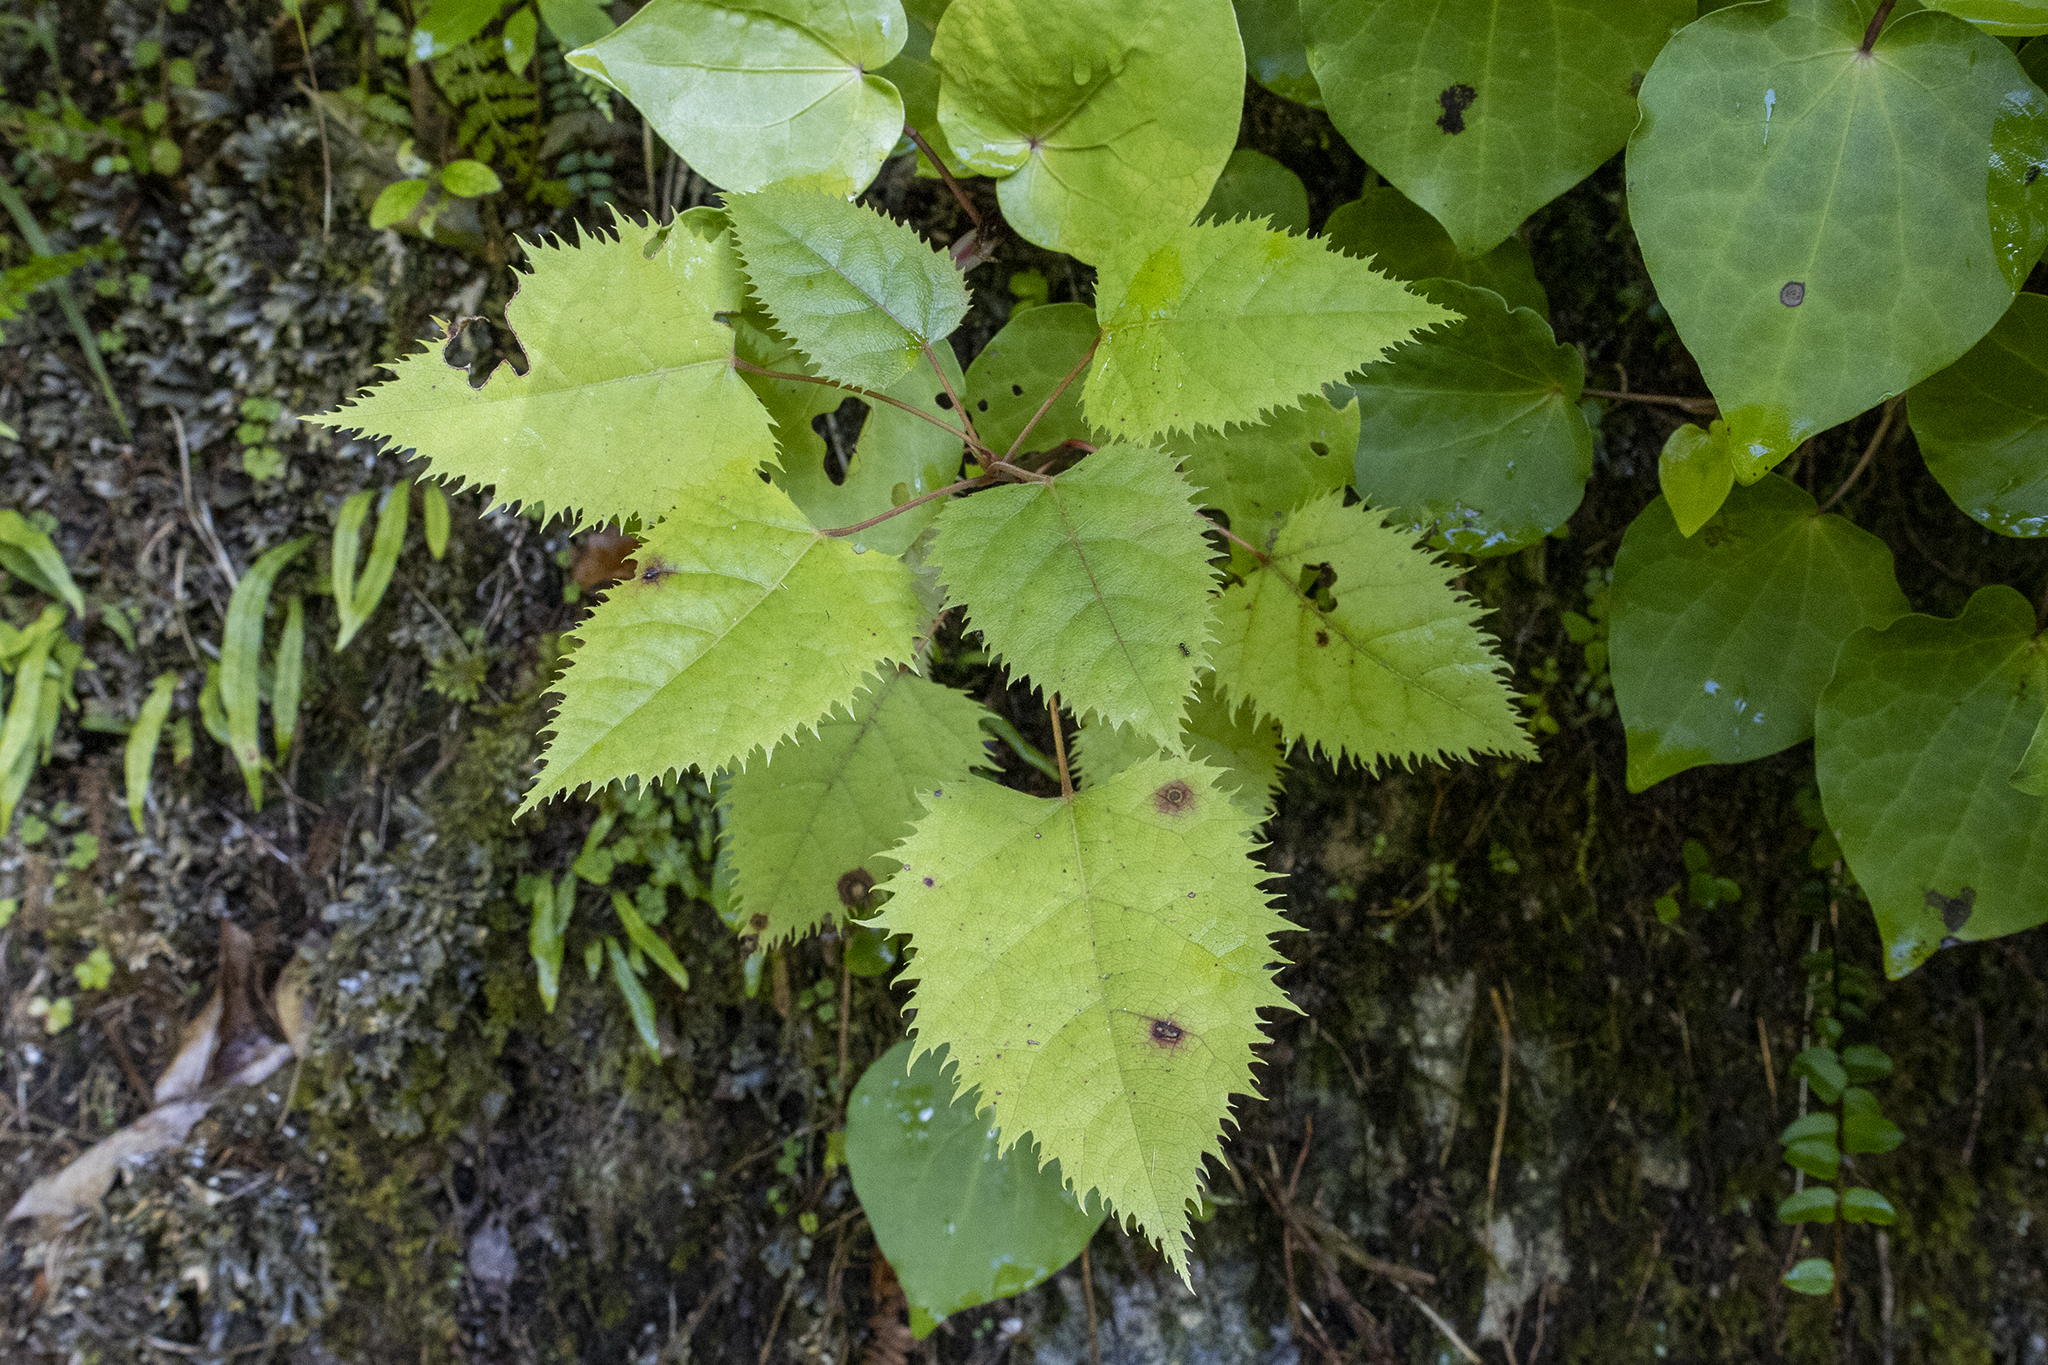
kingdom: Plantae
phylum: Tracheophyta
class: Magnoliopsida
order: Oxalidales
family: Elaeocarpaceae
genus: Aristotelia
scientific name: Aristotelia serrata
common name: New zealand wineberry
